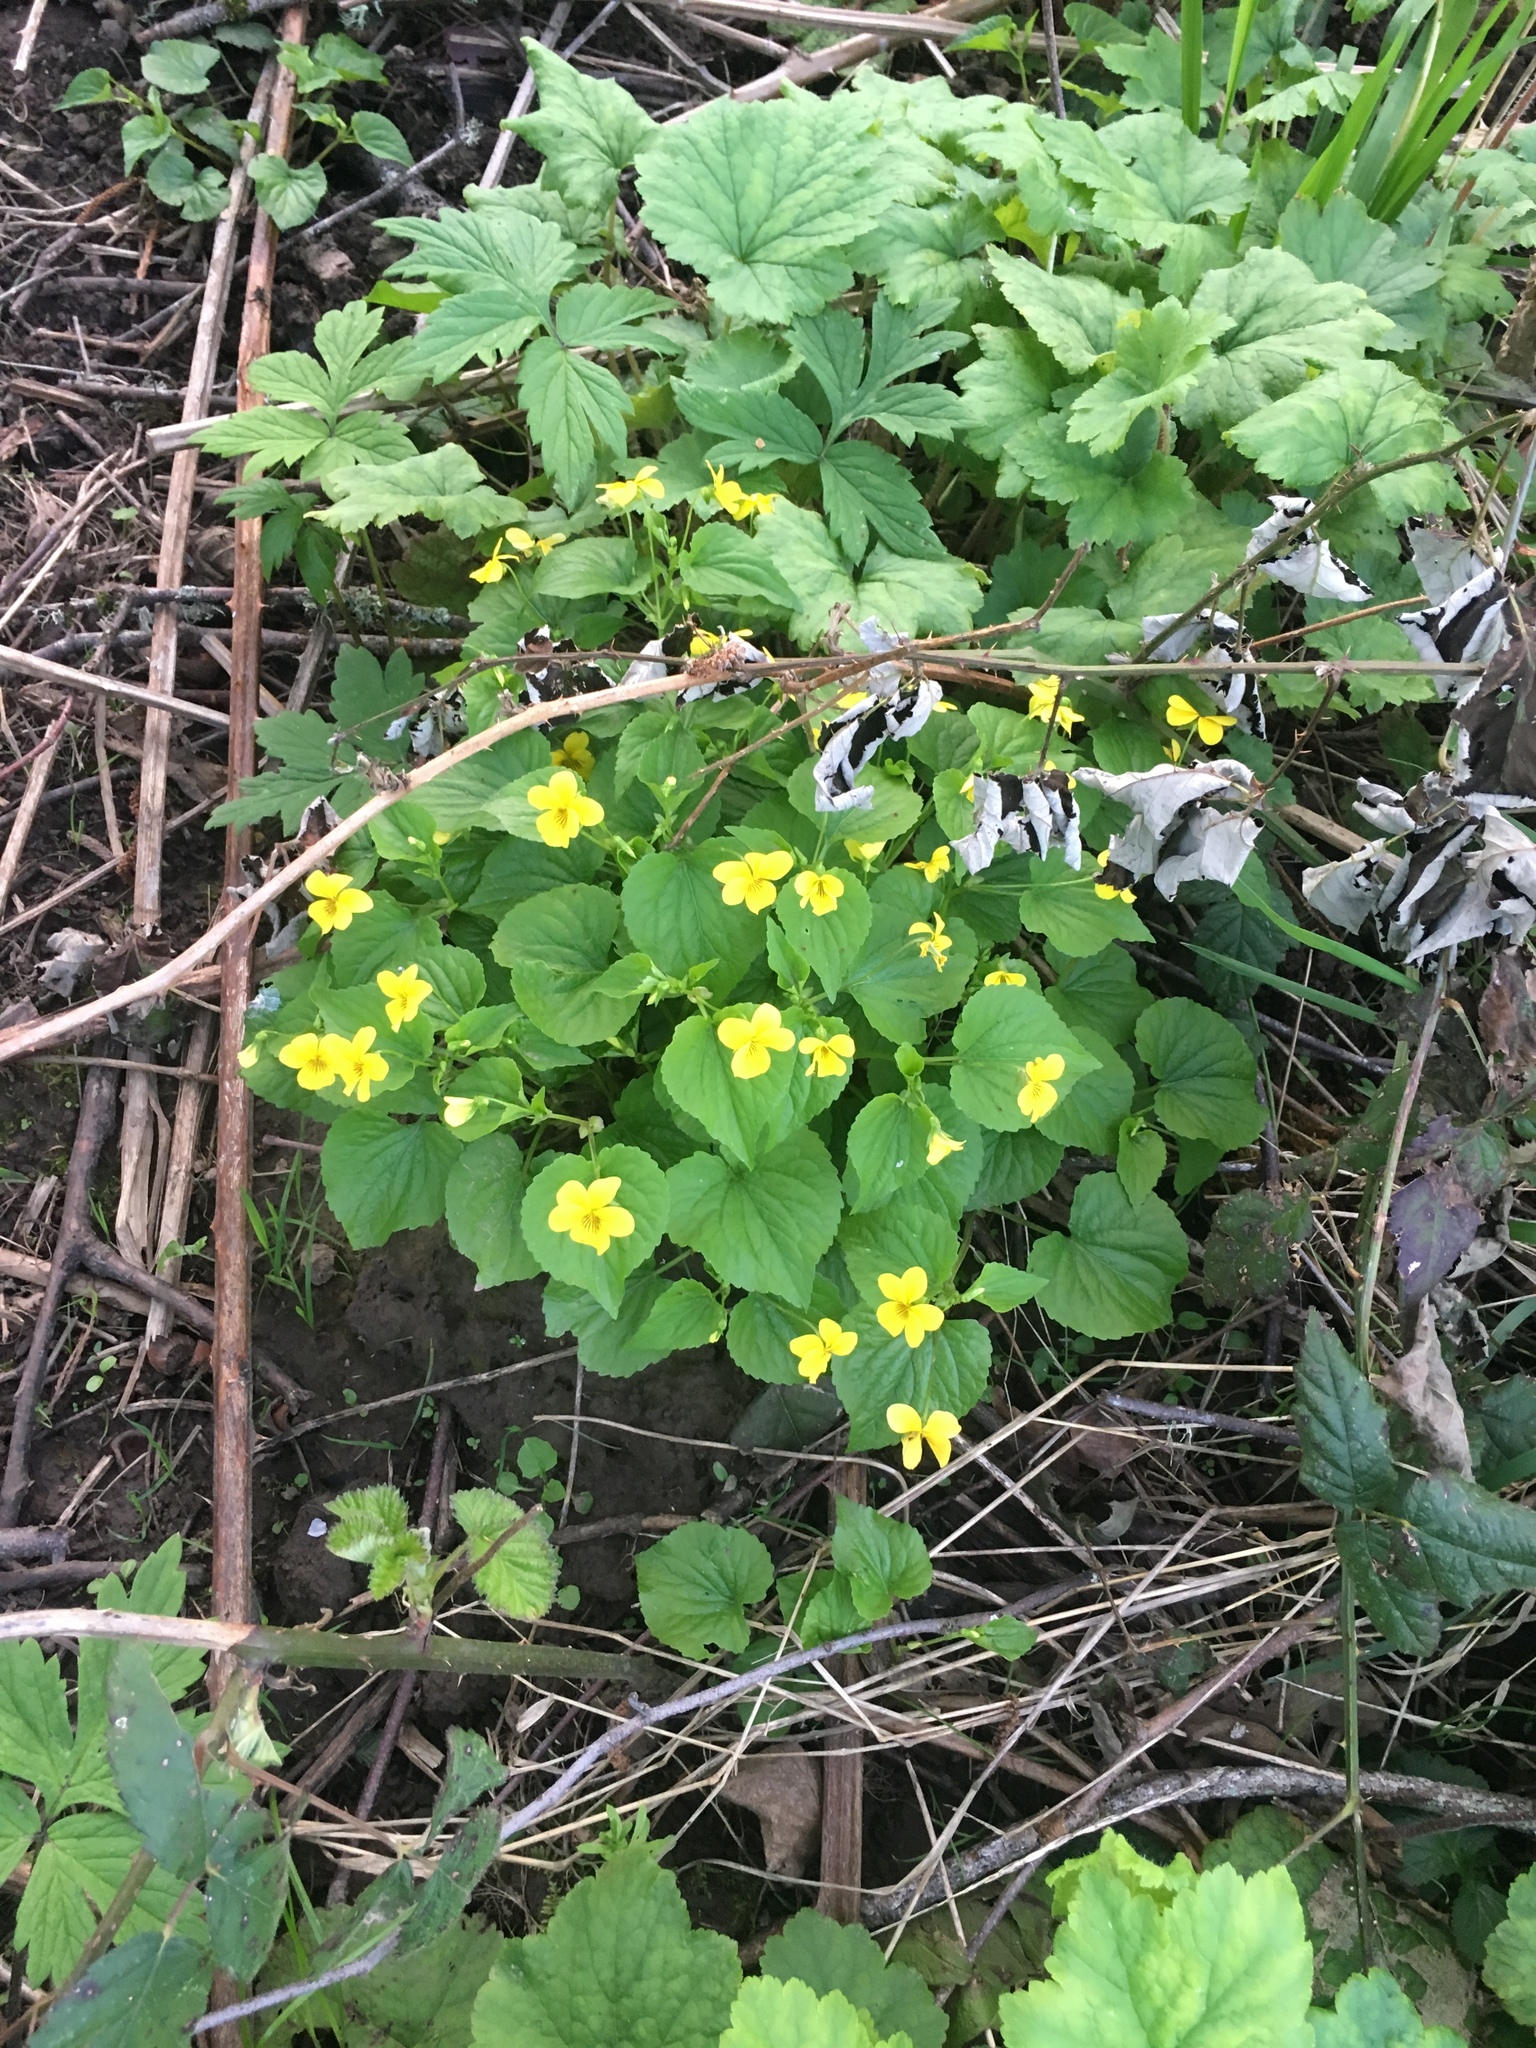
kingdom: Plantae
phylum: Tracheophyta
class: Magnoliopsida
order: Malpighiales
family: Violaceae
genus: Viola
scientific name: Viola glabella
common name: Stream violet
